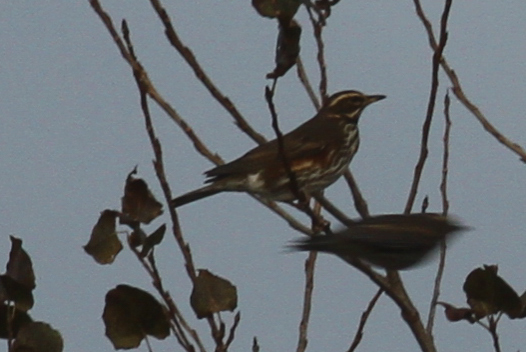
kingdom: Animalia
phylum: Chordata
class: Aves
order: Passeriformes
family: Turdidae
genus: Turdus
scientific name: Turdus iliacus
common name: Redwing
